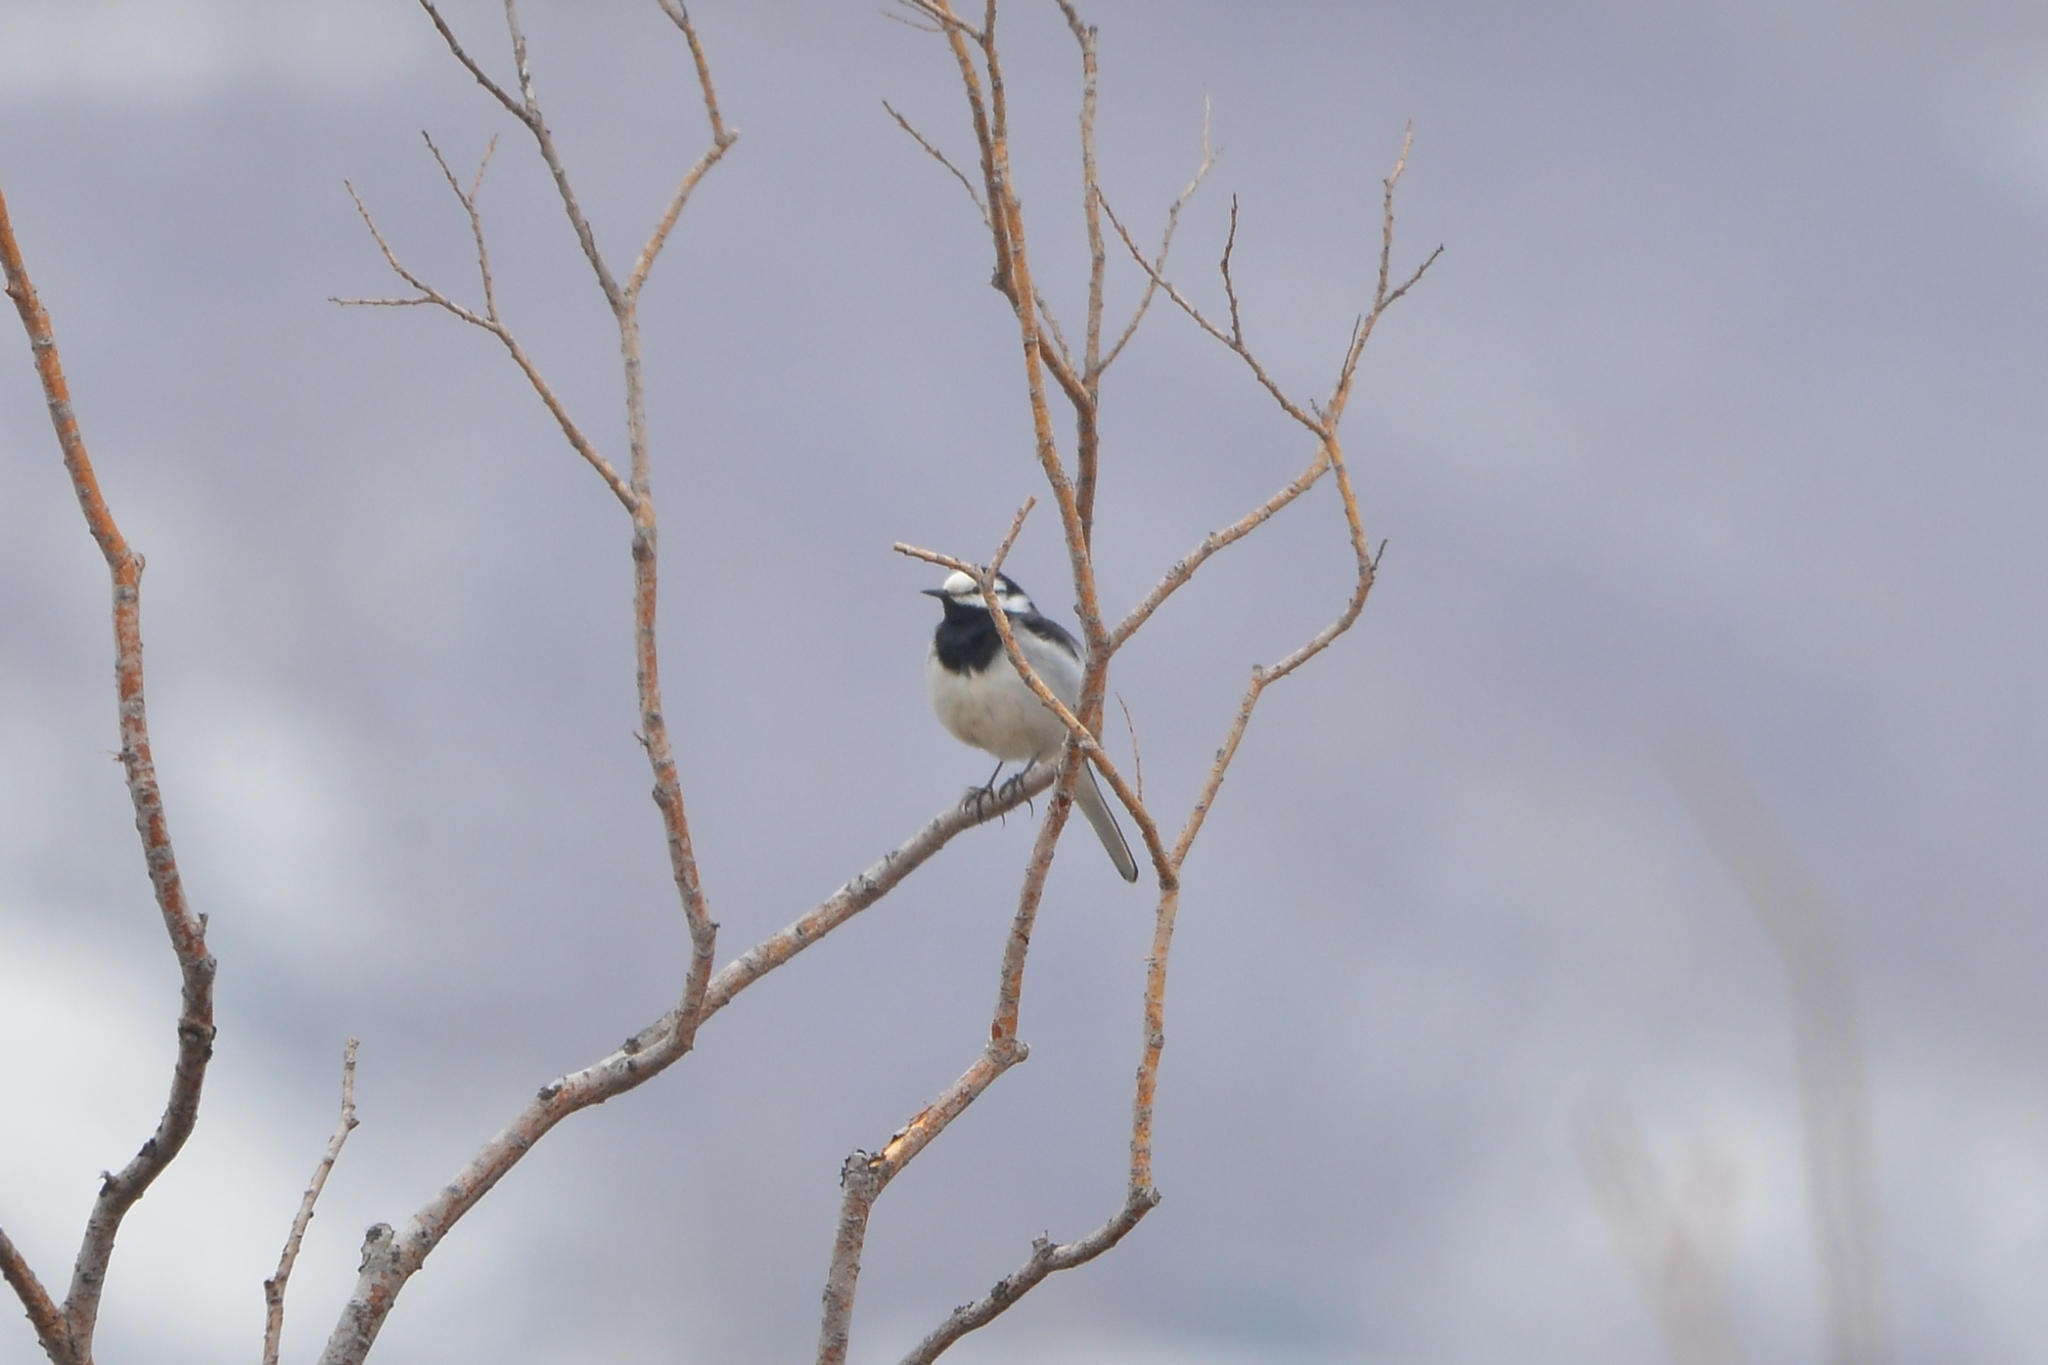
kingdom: Animalia
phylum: Chordata
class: Aves
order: Passeriformes
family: Motacillidae
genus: Motacilla
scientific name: Motacilla alba
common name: White wagtail
